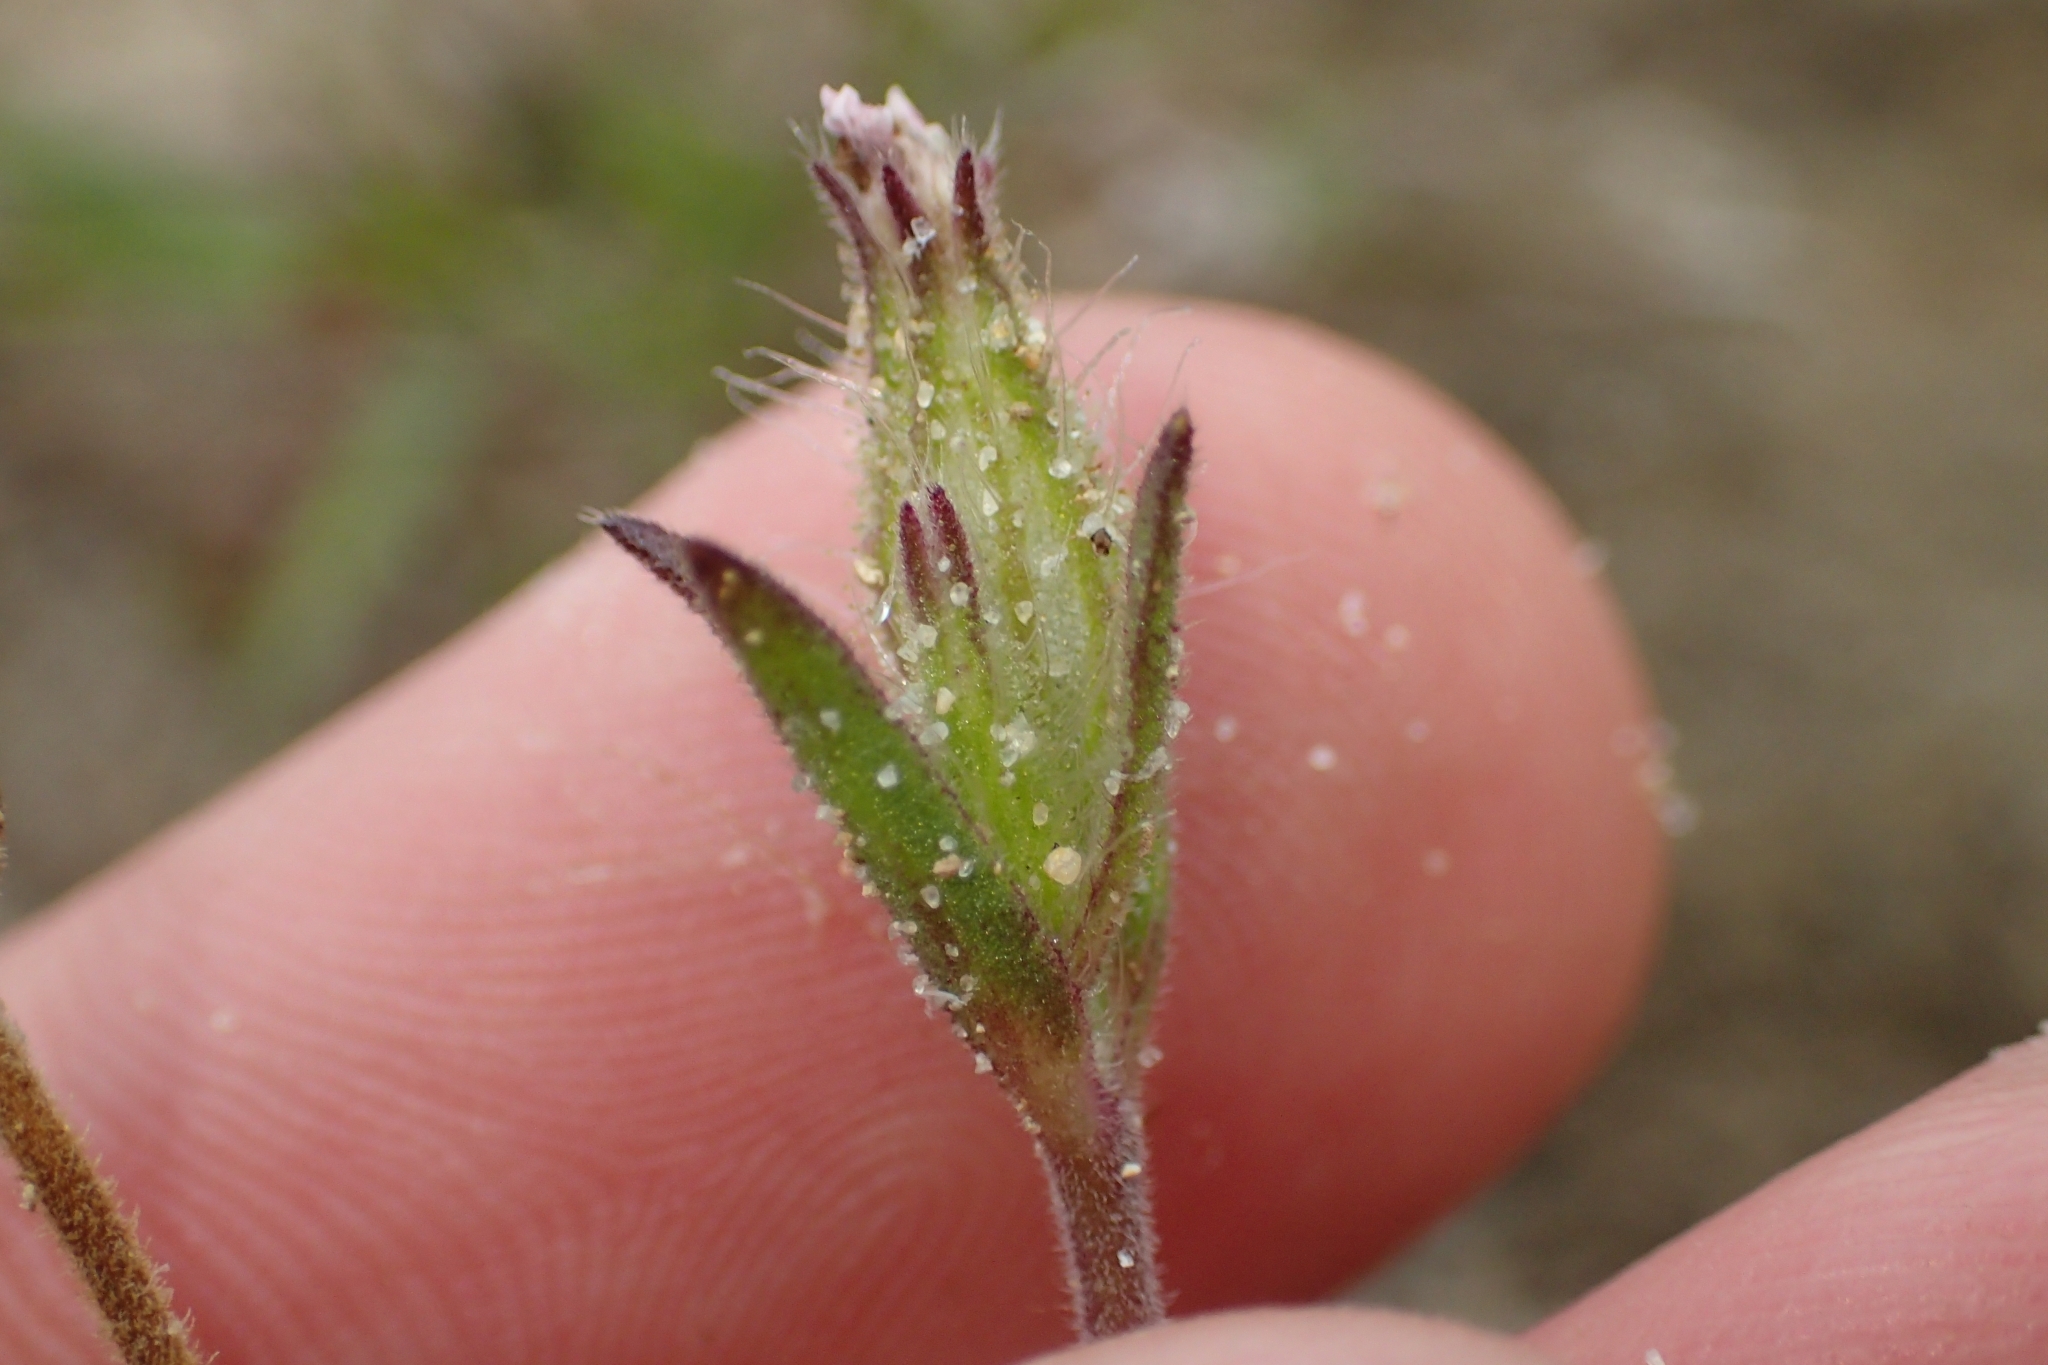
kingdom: Plantae
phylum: Tracheophyta
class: Magnoliopsida
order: Caryophyllales
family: Caryophyllaceae
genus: Silene
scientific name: Silene gallica
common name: Small-flowered catchfly
